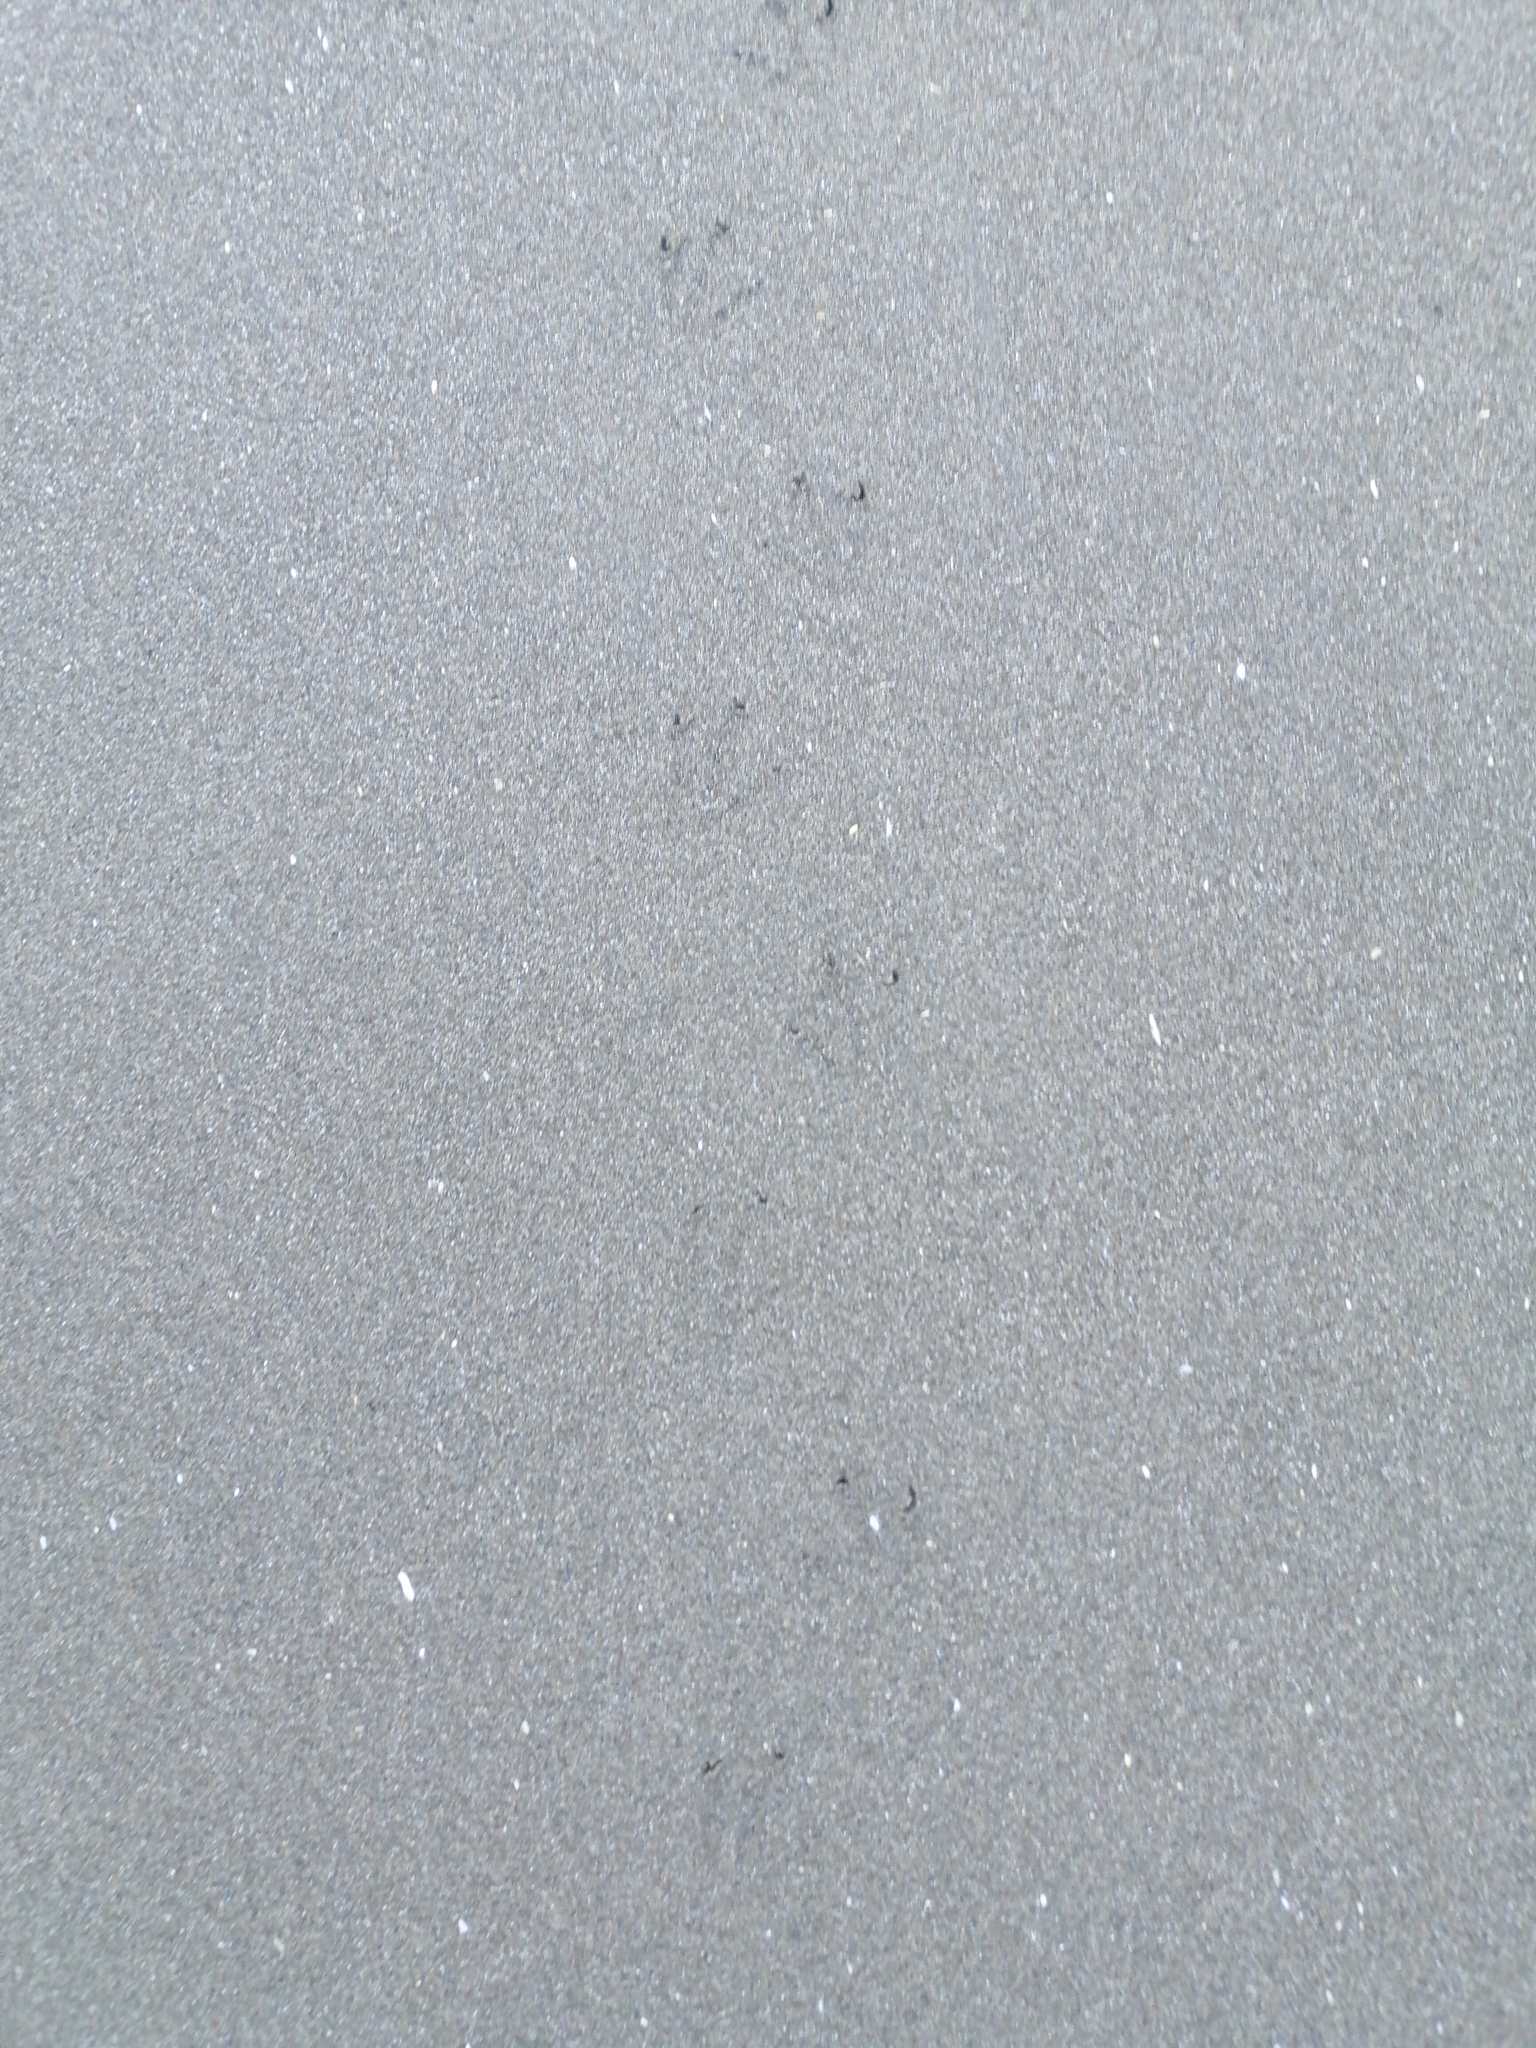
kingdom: Animalia
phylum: Chordata
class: Aves
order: Sphenisciformes
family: Spheniscidae
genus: Eudyptula
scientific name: Eudyptula minor
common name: Little penguin
